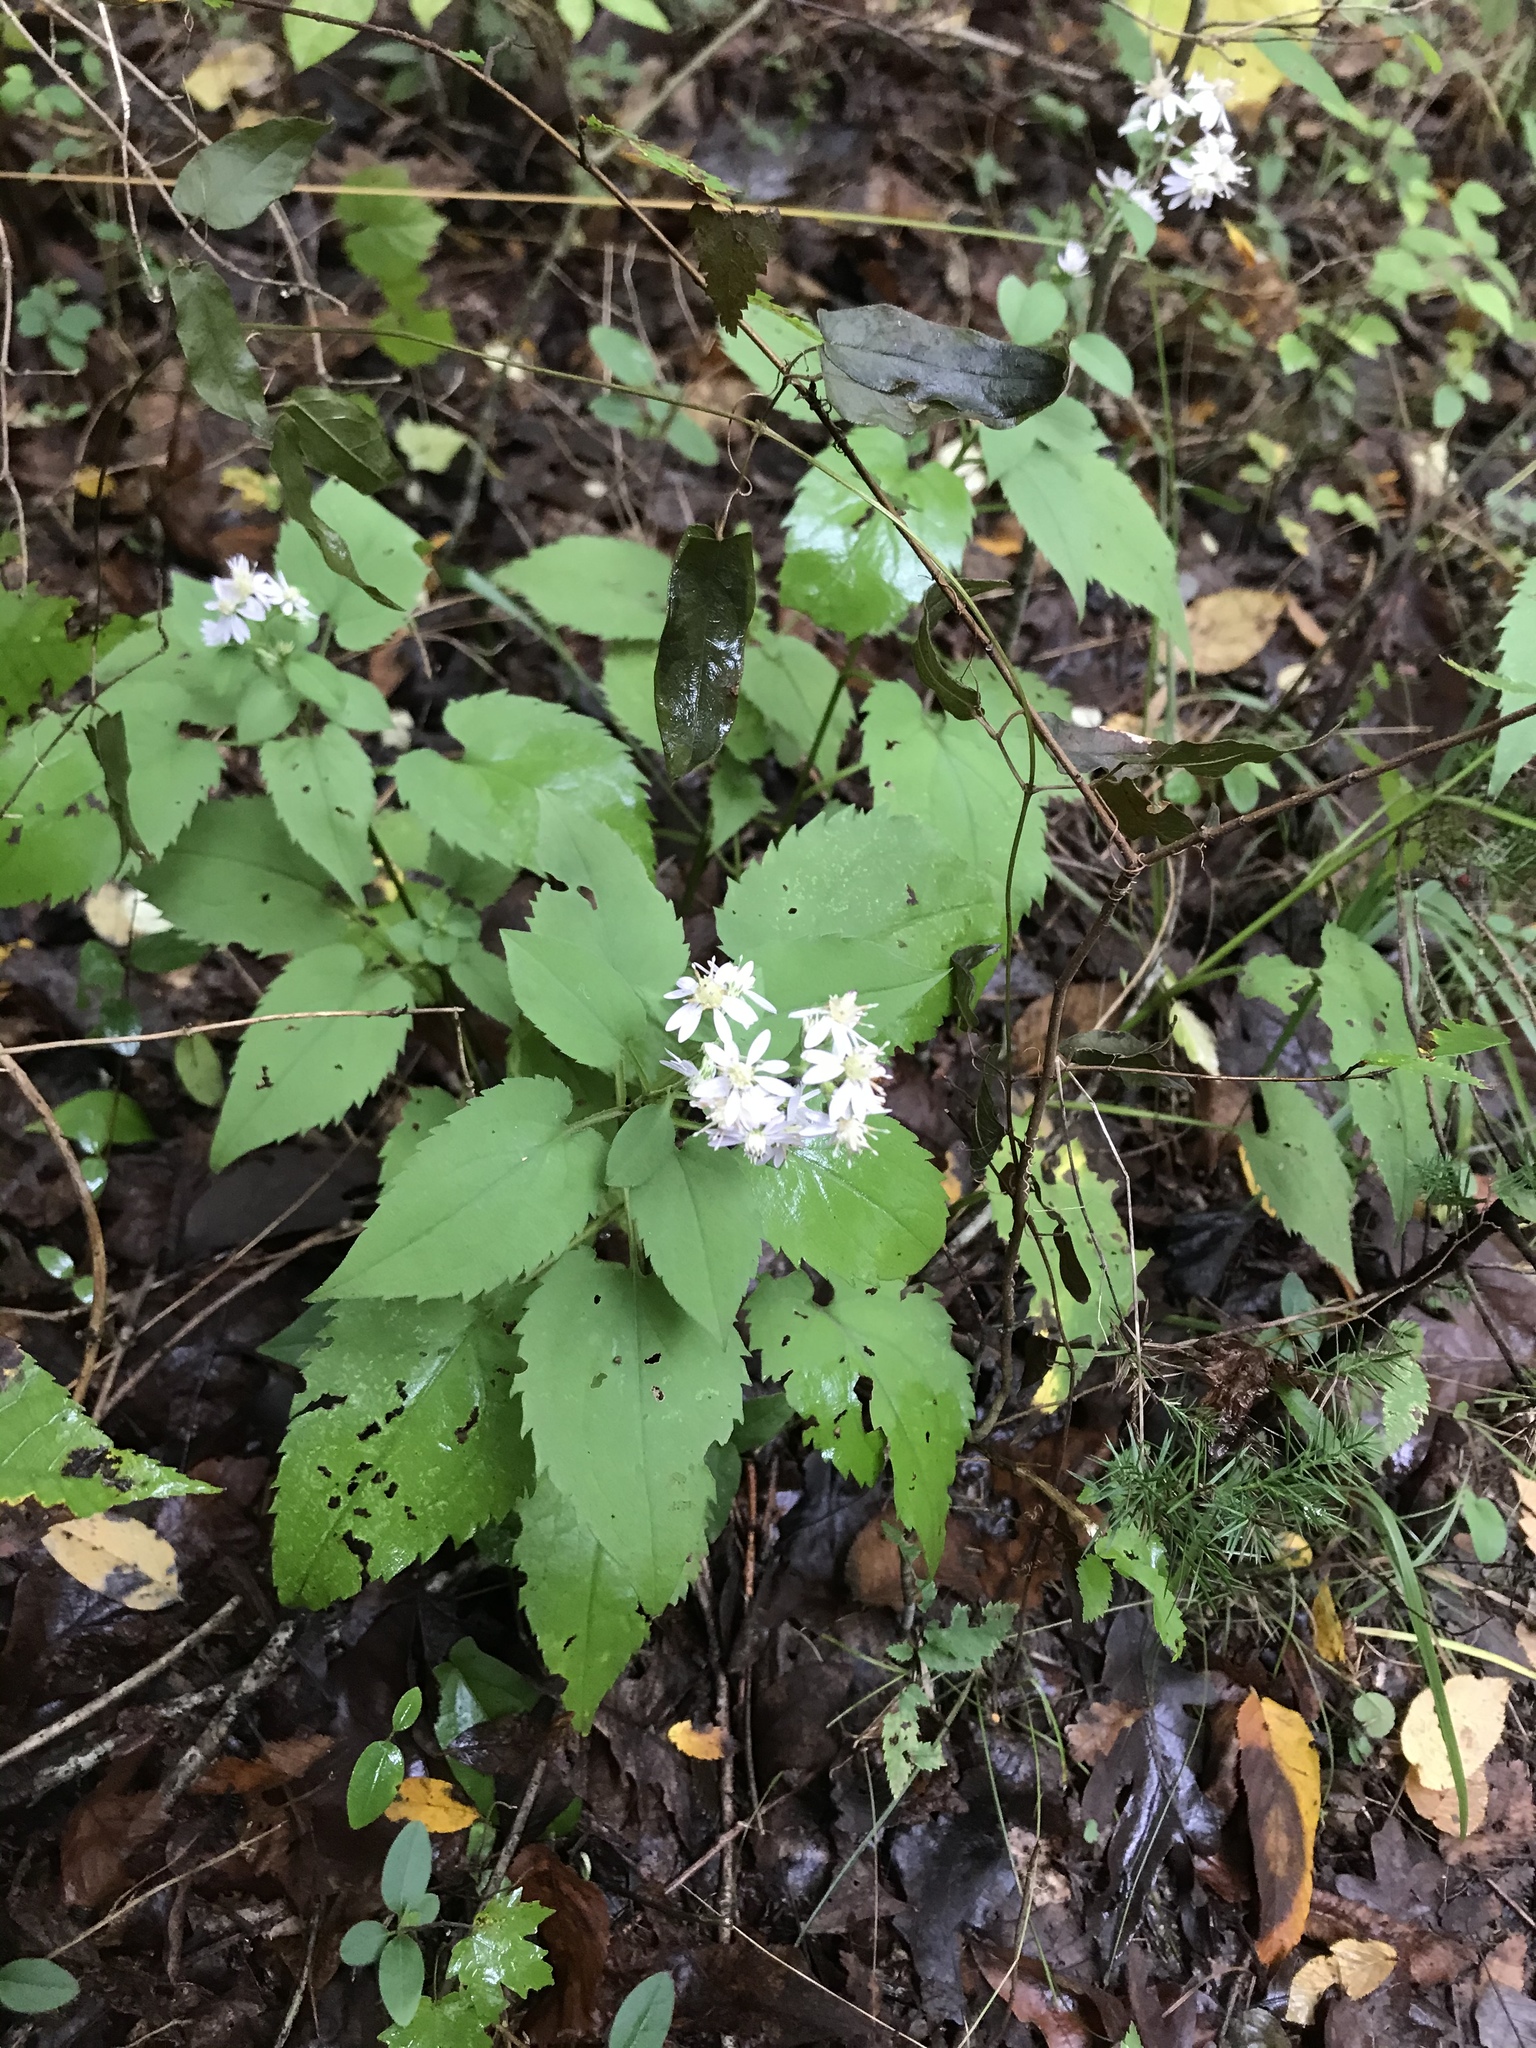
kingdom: Plantae
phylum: Tracheophyta
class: Magnoliopsida
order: Asterales
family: Asteraceae
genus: Symphyotrichum
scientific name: Symphyotrichum cordifolium
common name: Beeweed
